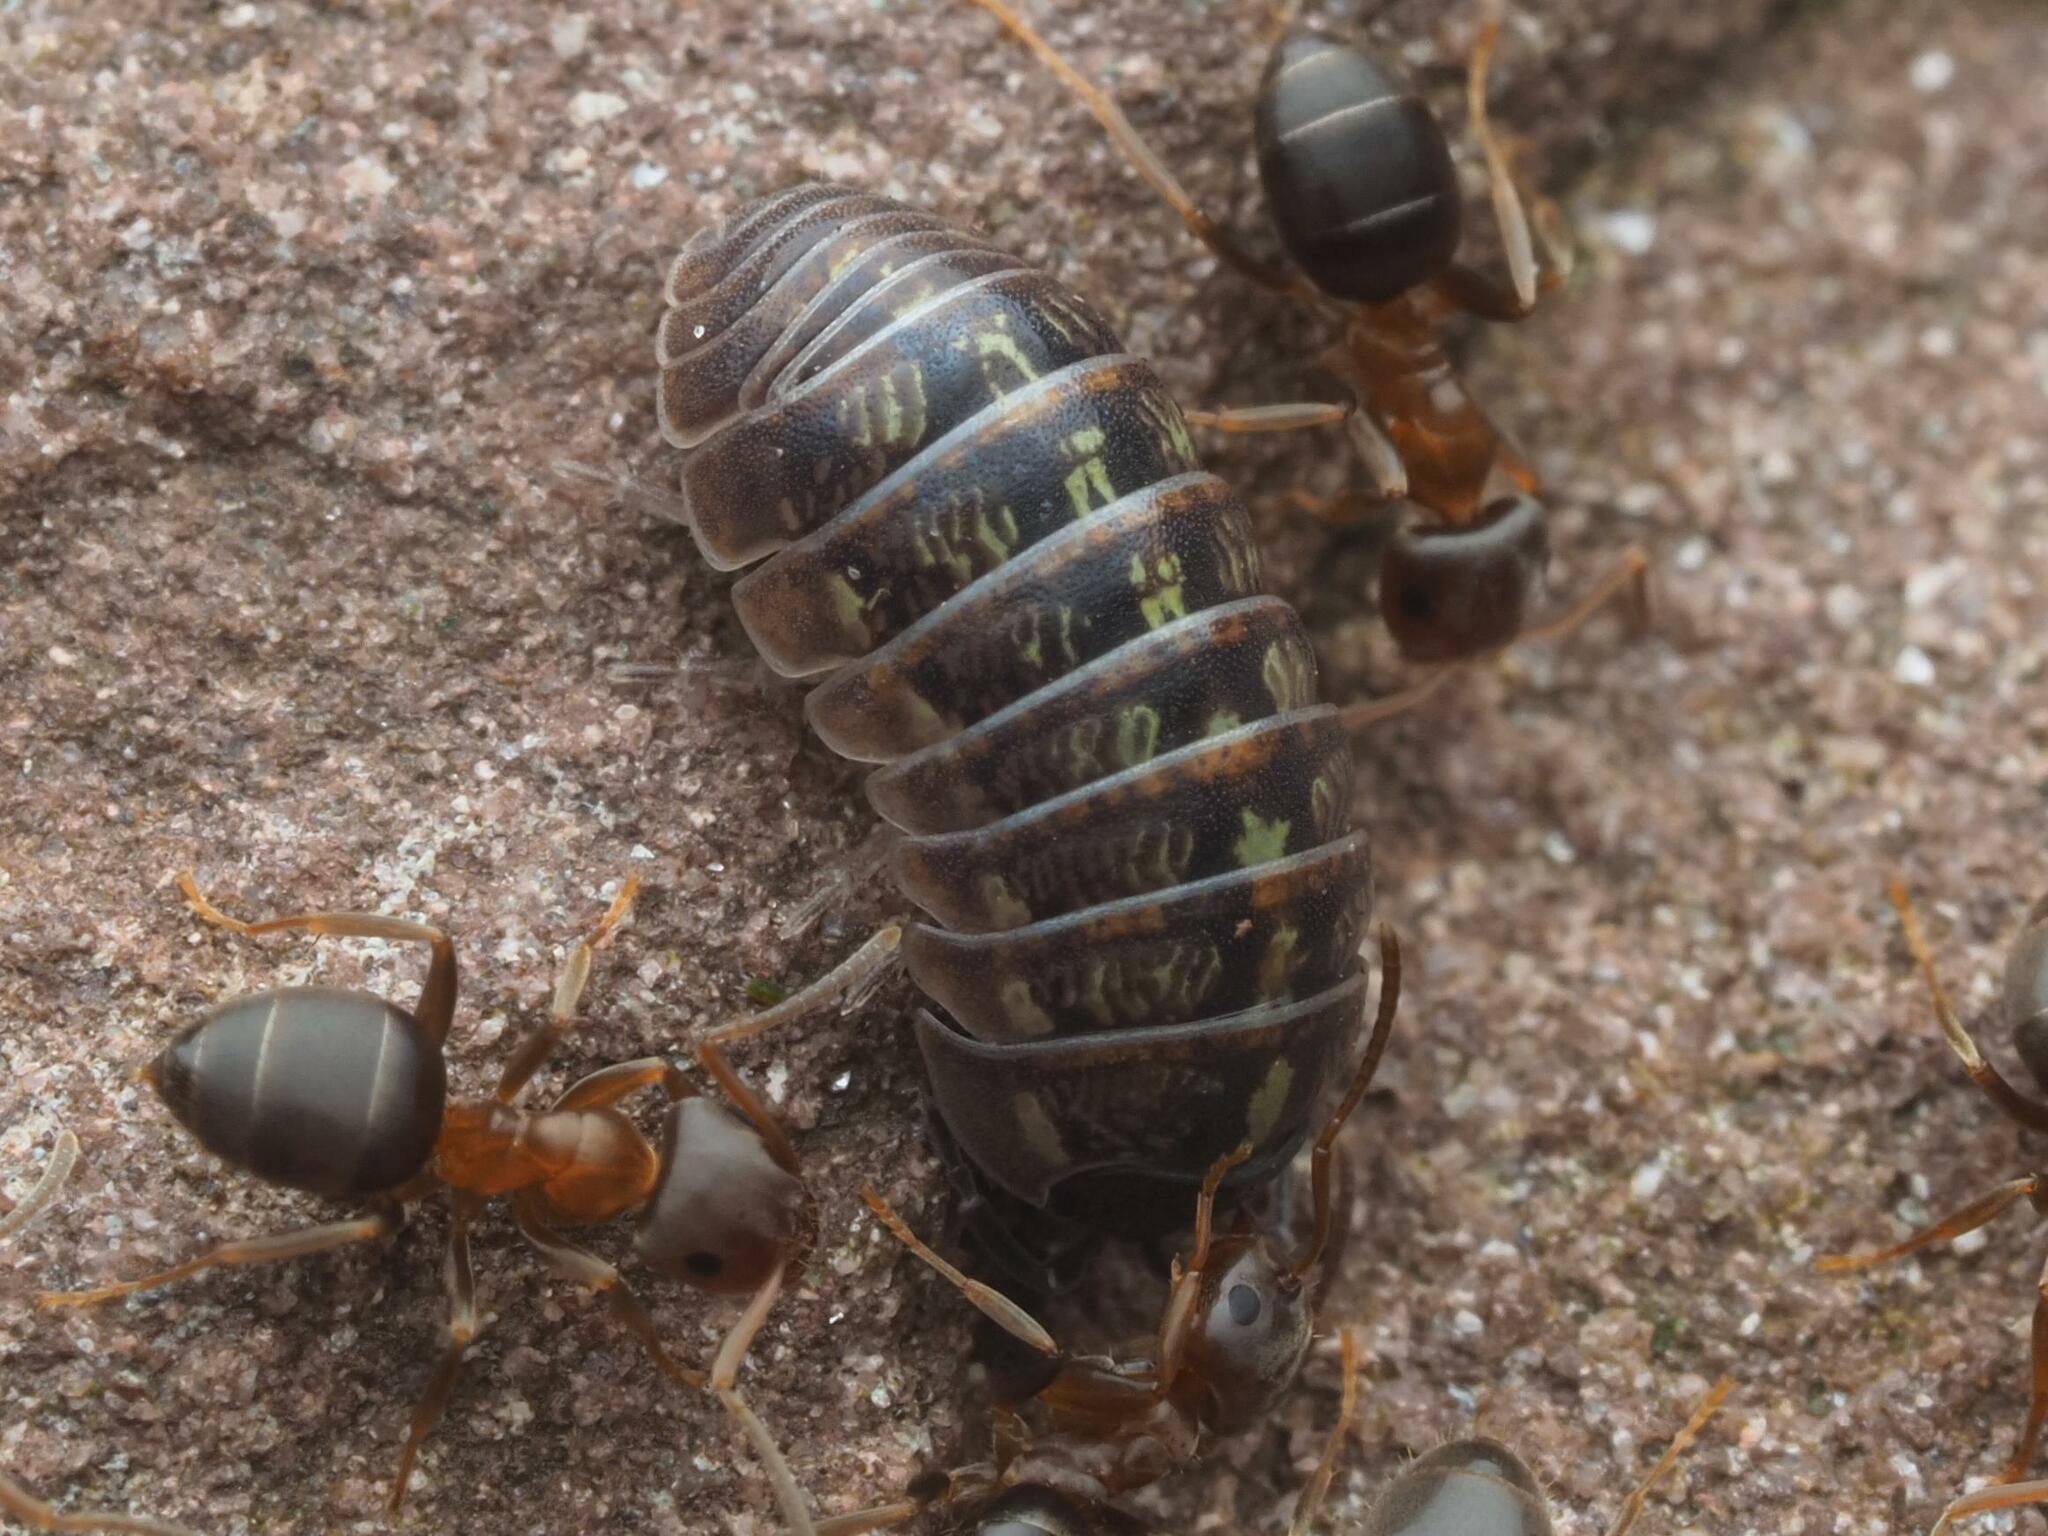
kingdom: Animalia
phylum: Arthropoda
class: Malacostraca
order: Isopoda
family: Armadillidiidae
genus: Armadillidium
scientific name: Armadillidium vulgare
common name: Common pill woodlouse
